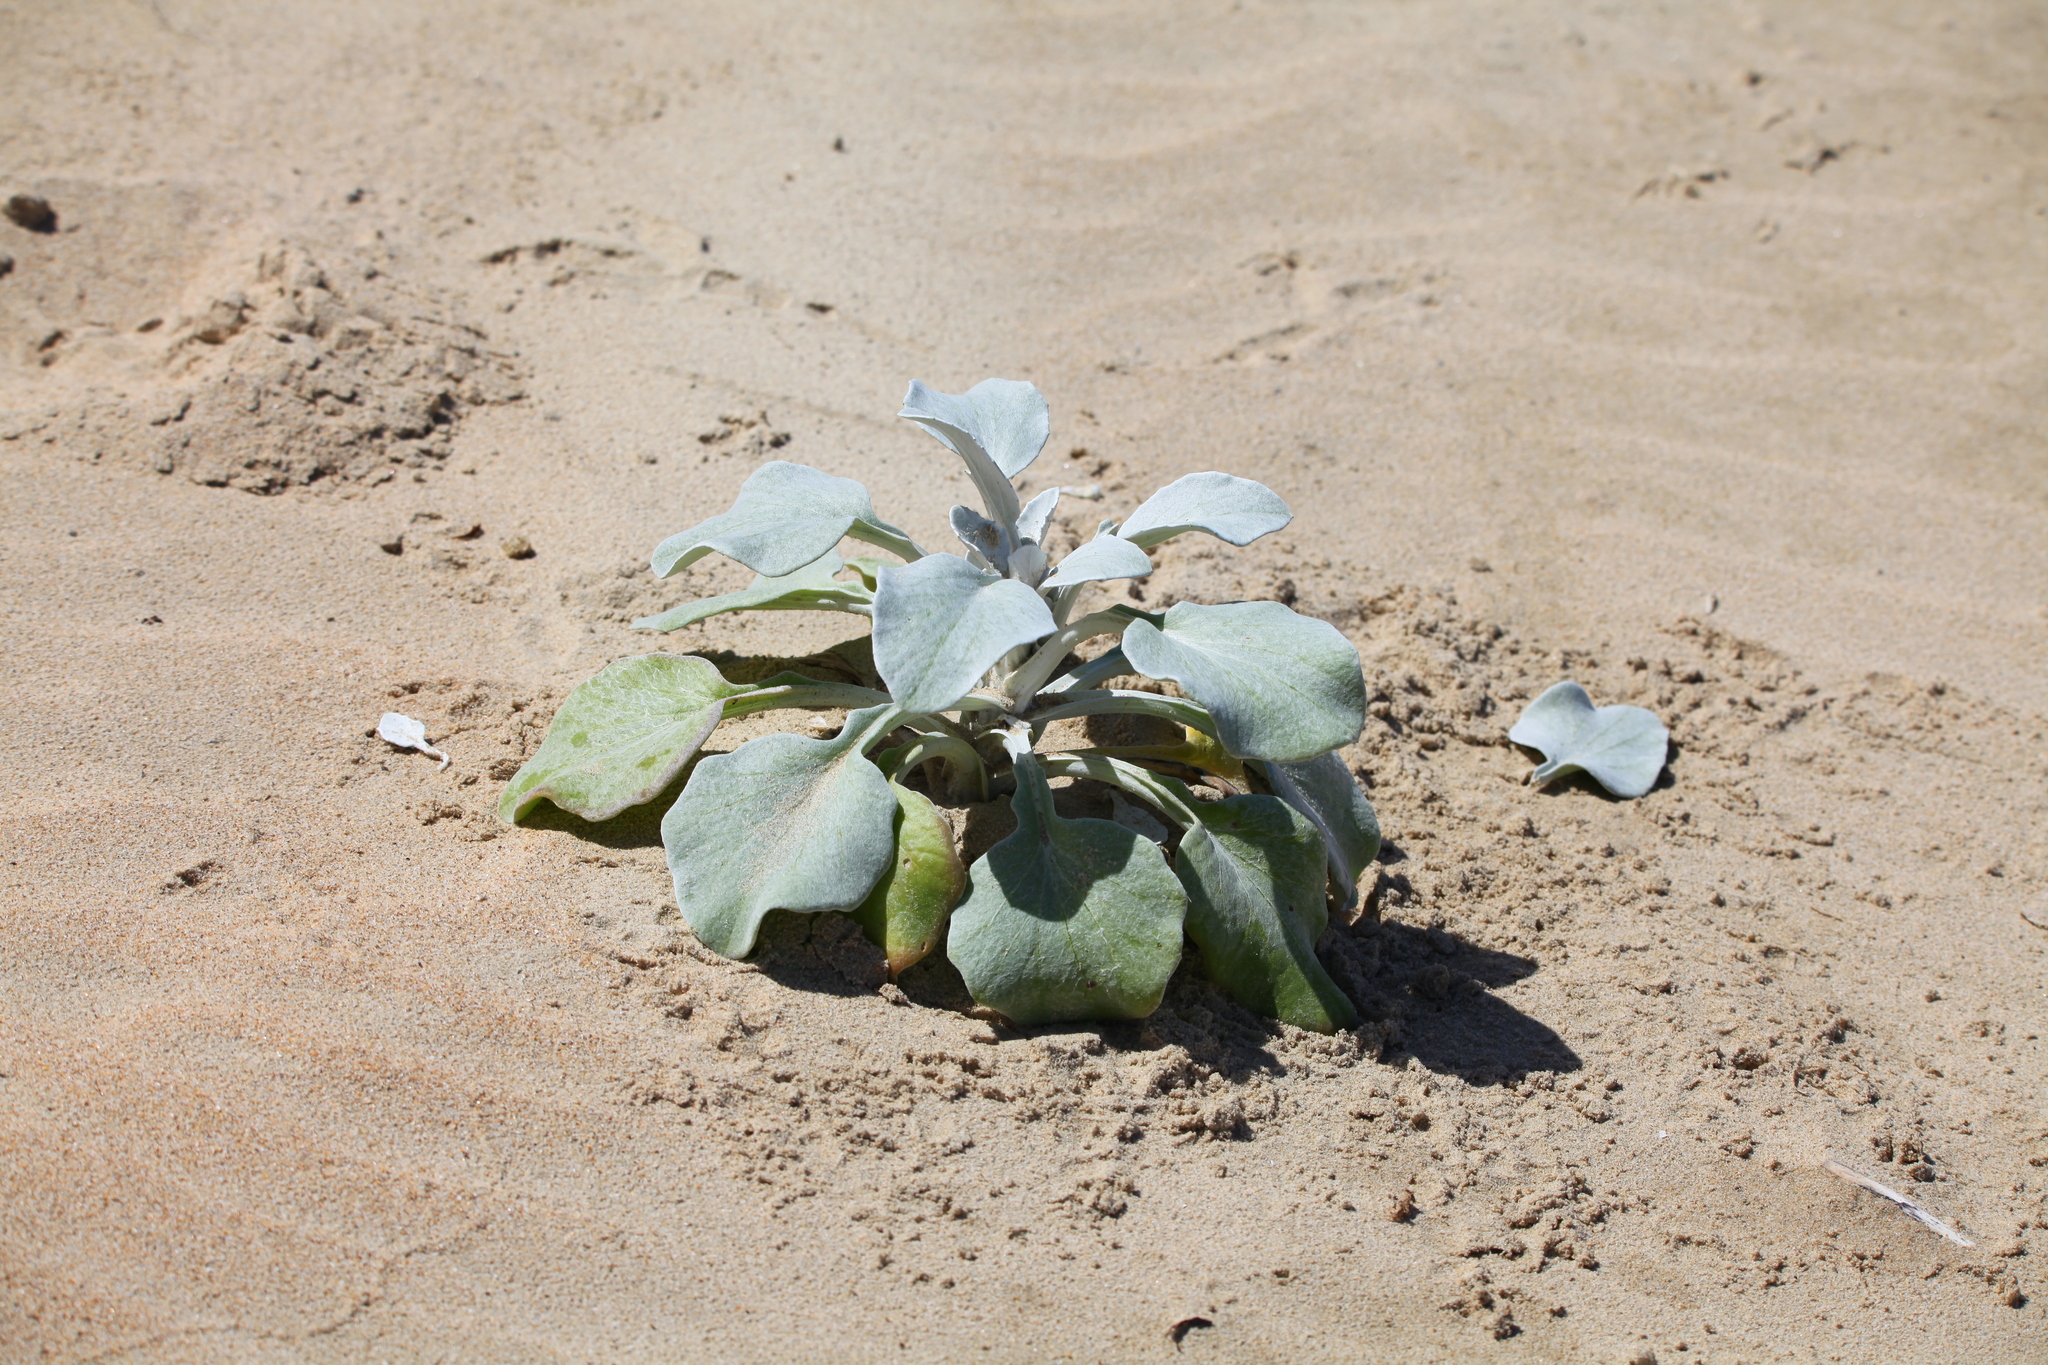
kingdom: Plantae
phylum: Tracheophyta
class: Magnoliopsida
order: Asterales
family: Asteraceae
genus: Arctotheca
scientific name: Arctotheca populifolia
